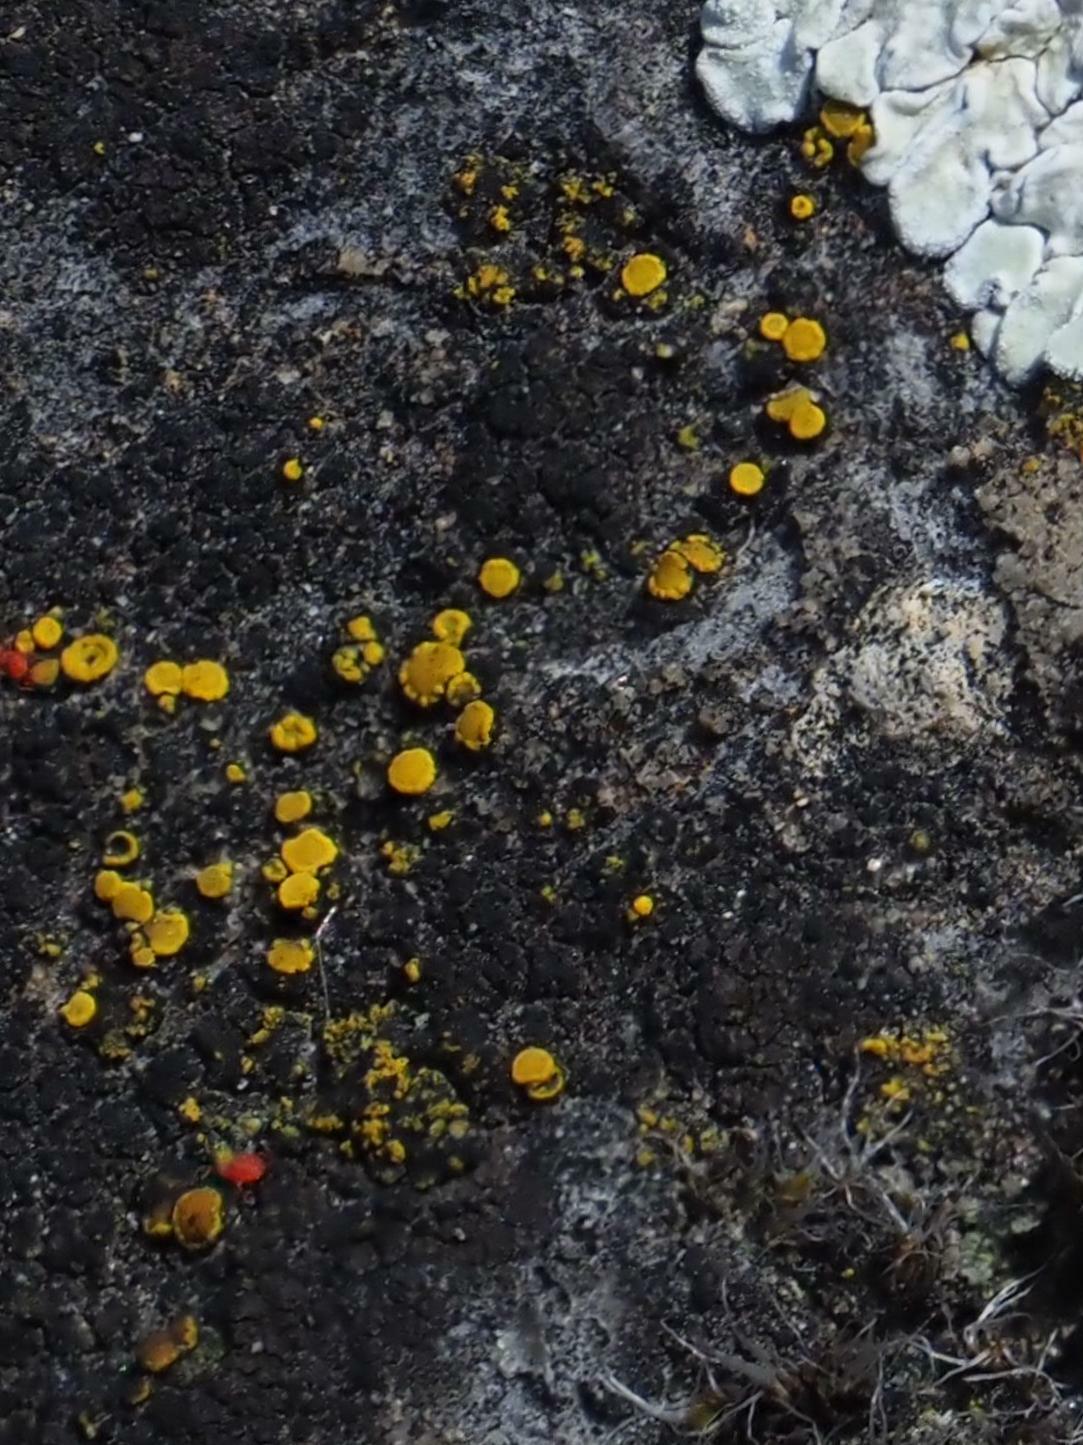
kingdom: Fungi
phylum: Ascomycota
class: Candelariomycetes
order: Candelariales
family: Candelariaceae
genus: Candelariella
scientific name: Candelariella aurella
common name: Hidden goldspeck lichen
